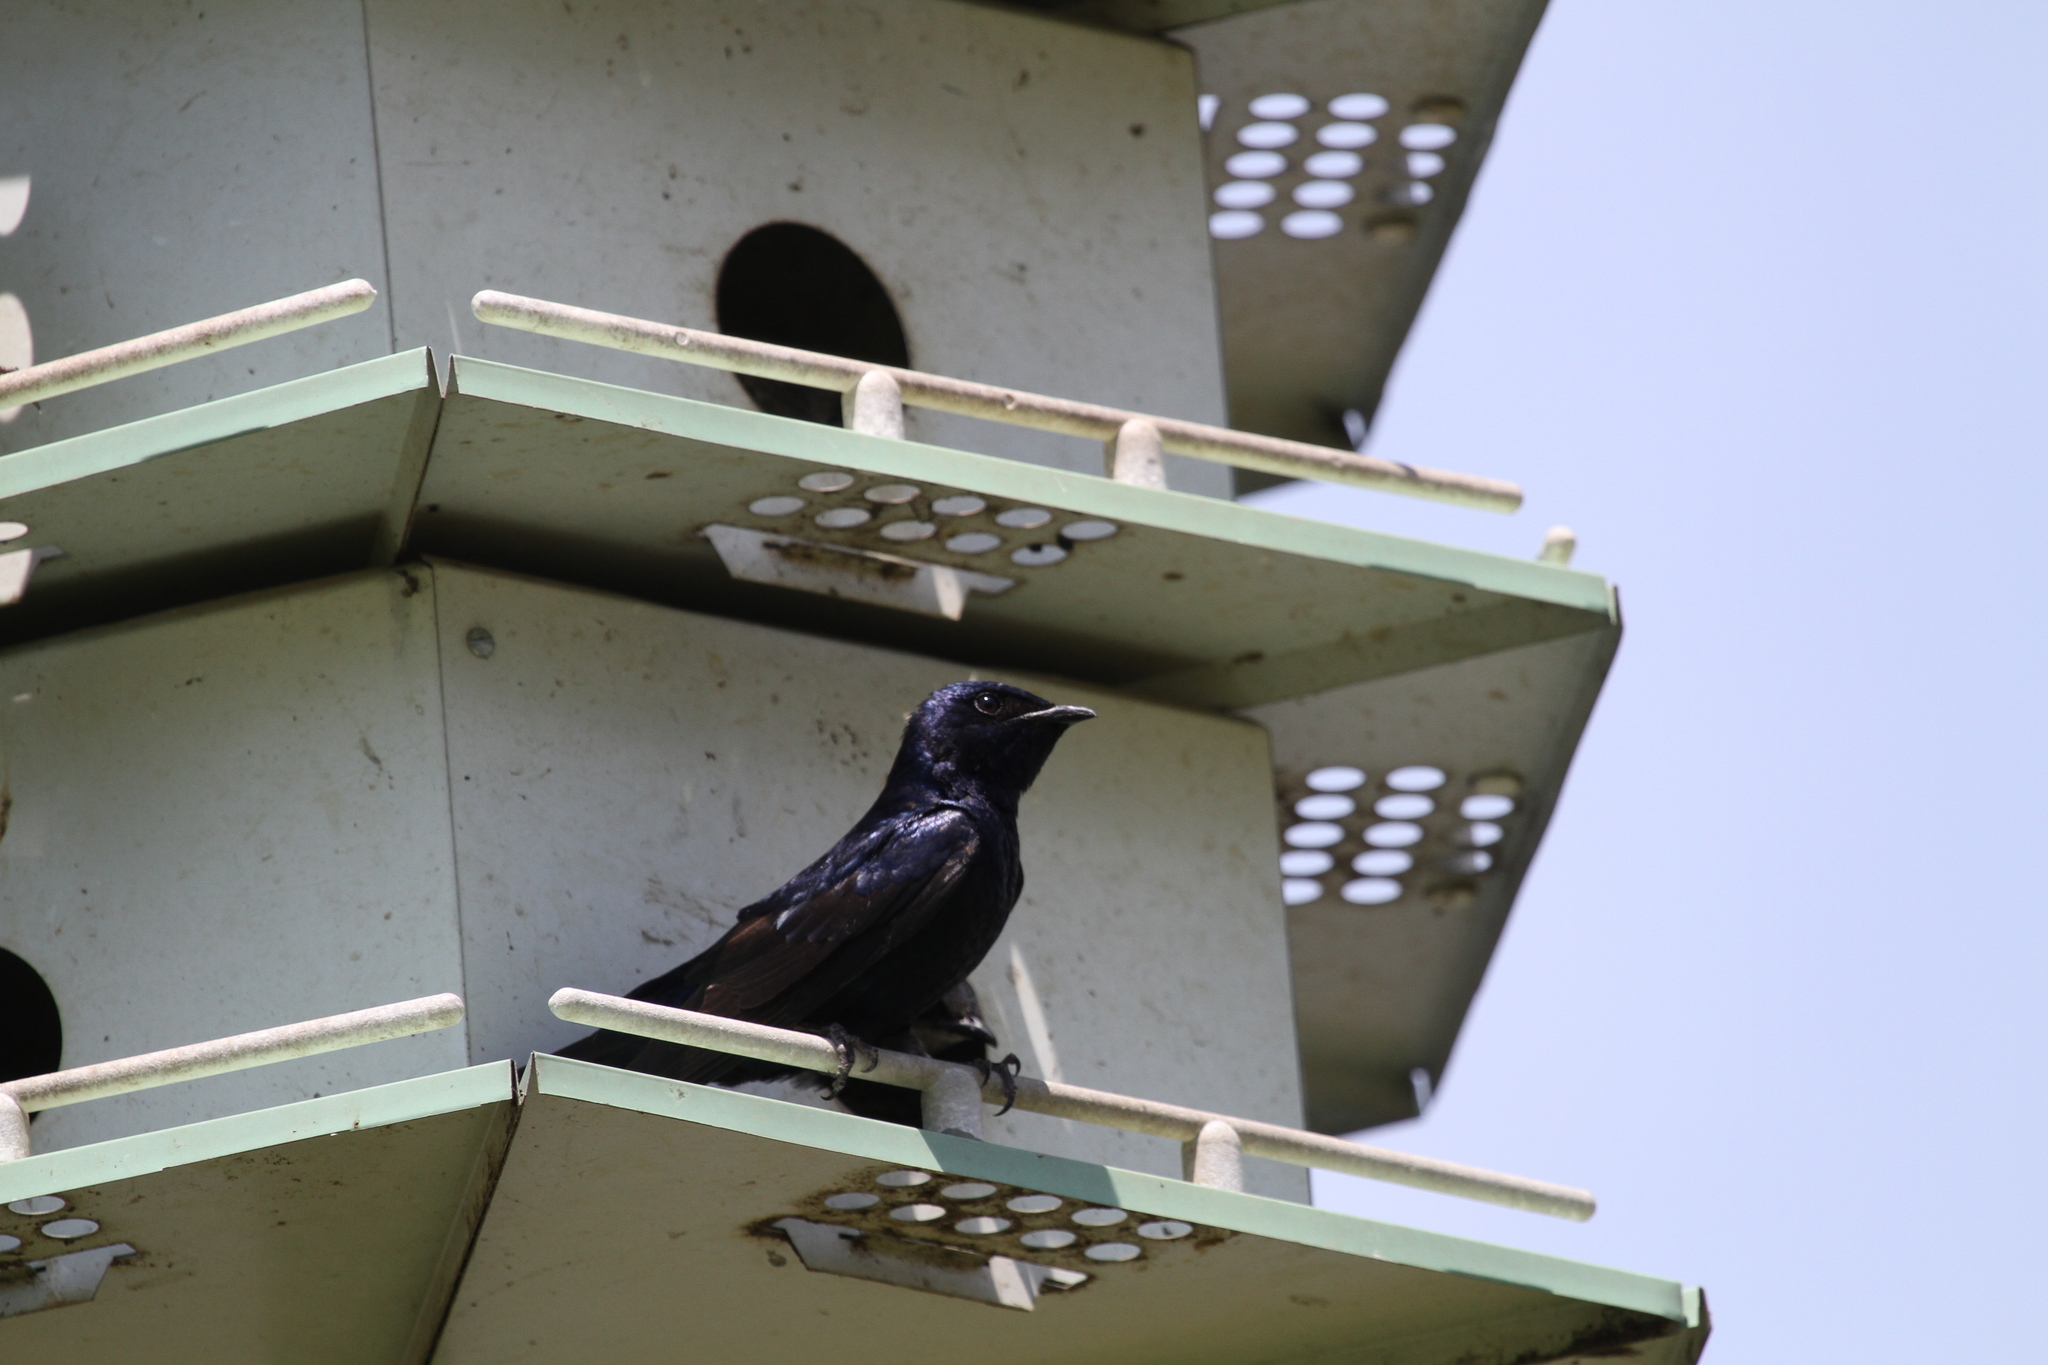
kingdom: Animalia
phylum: Chordata
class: Aves
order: Passeriformes
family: Hirundinidae
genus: Progne
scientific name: Progne subis
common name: Purple martin
